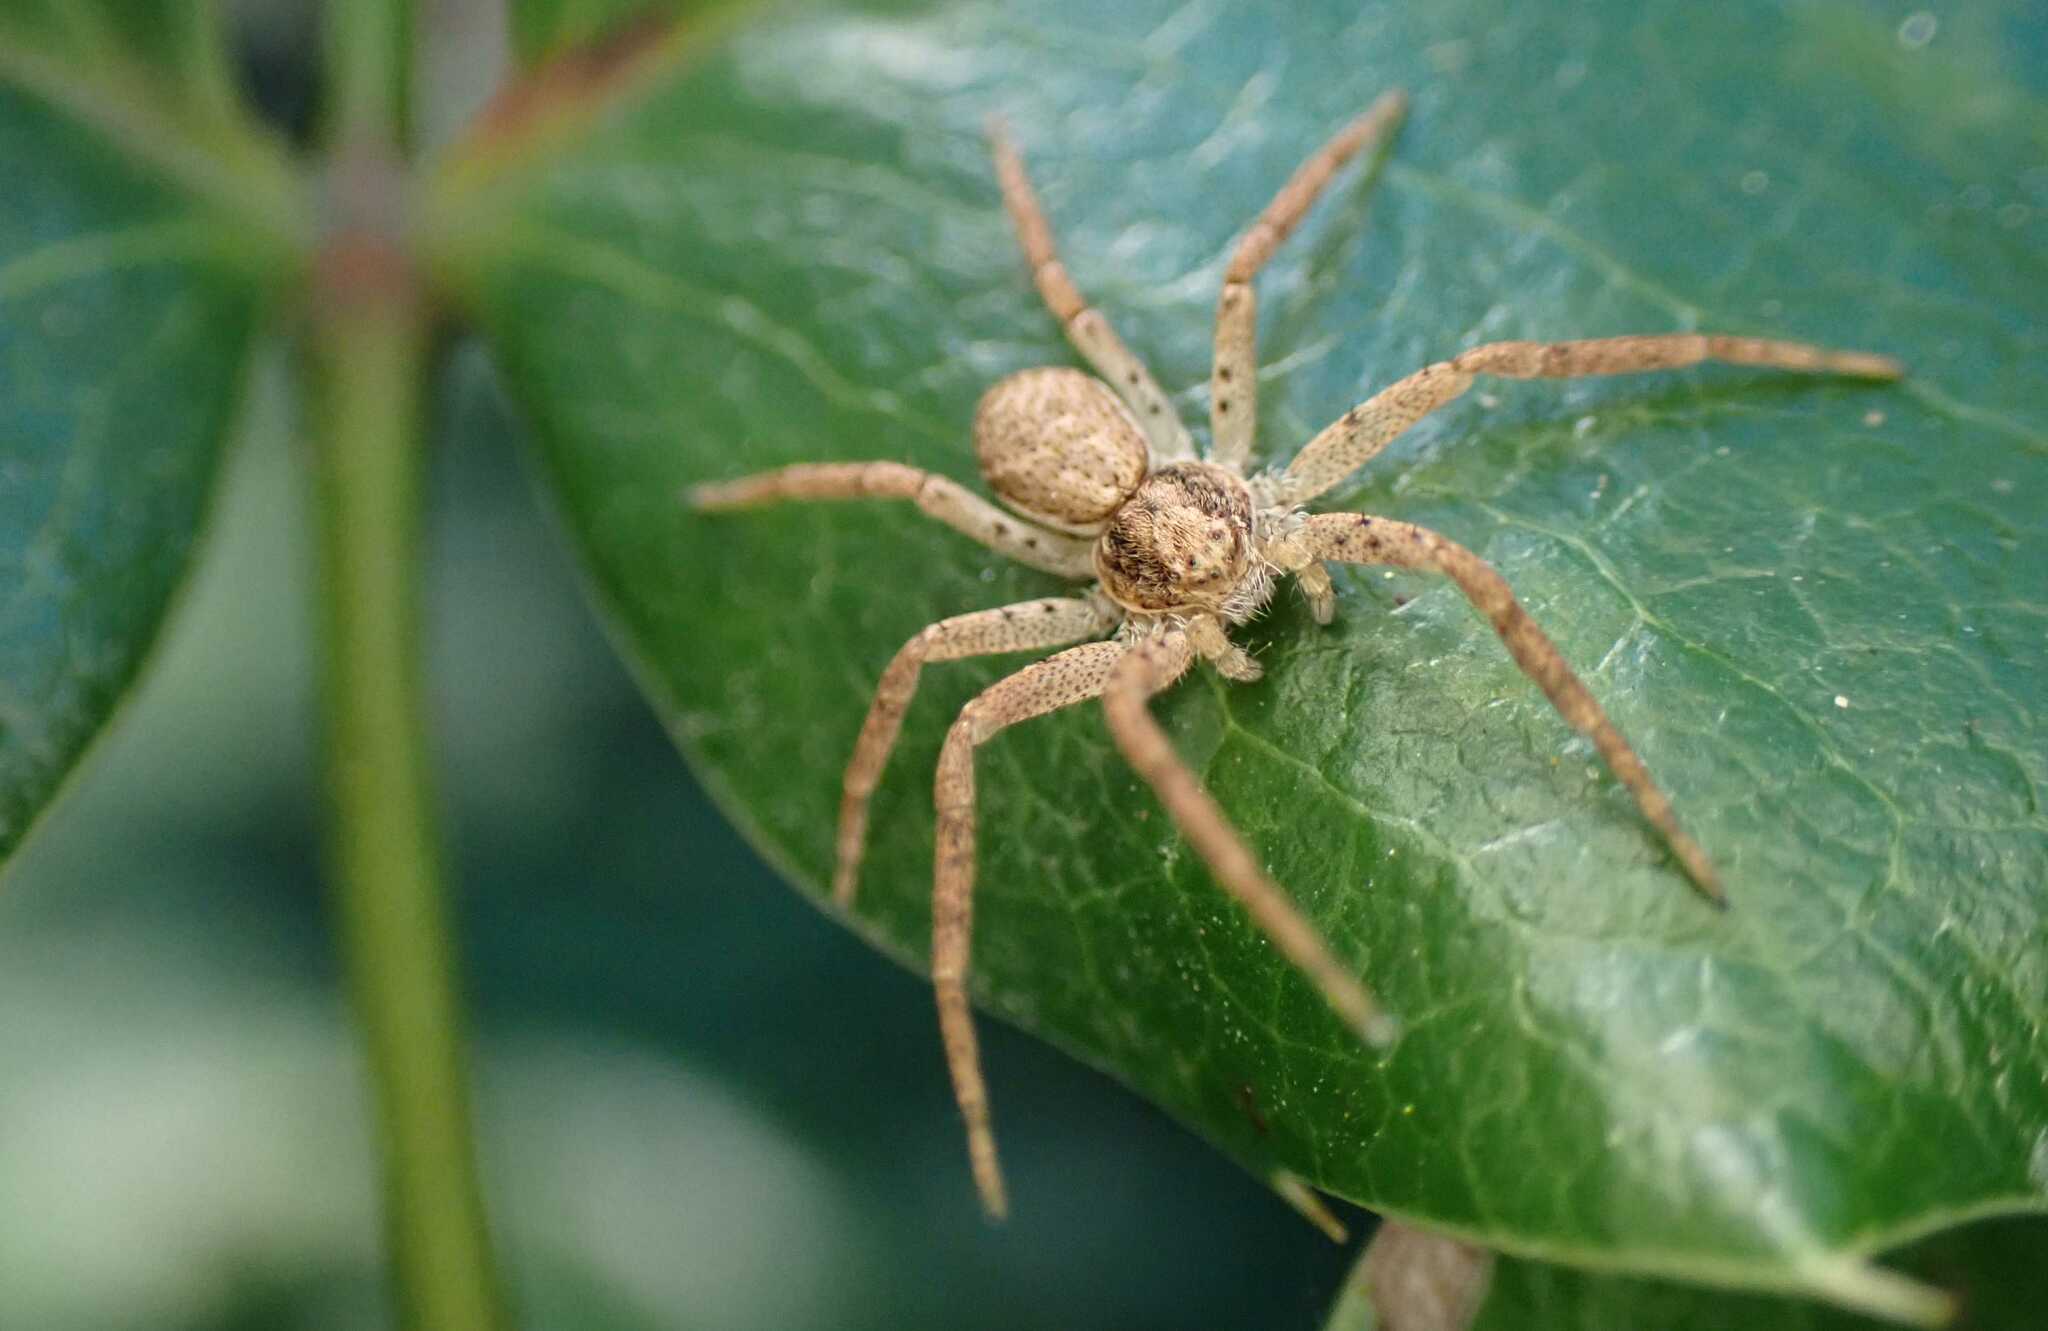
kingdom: Animalia
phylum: Arthropoda
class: Arachnida
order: Araneae
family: Philodromidae
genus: Philodromus
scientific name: Philodromus dispar
